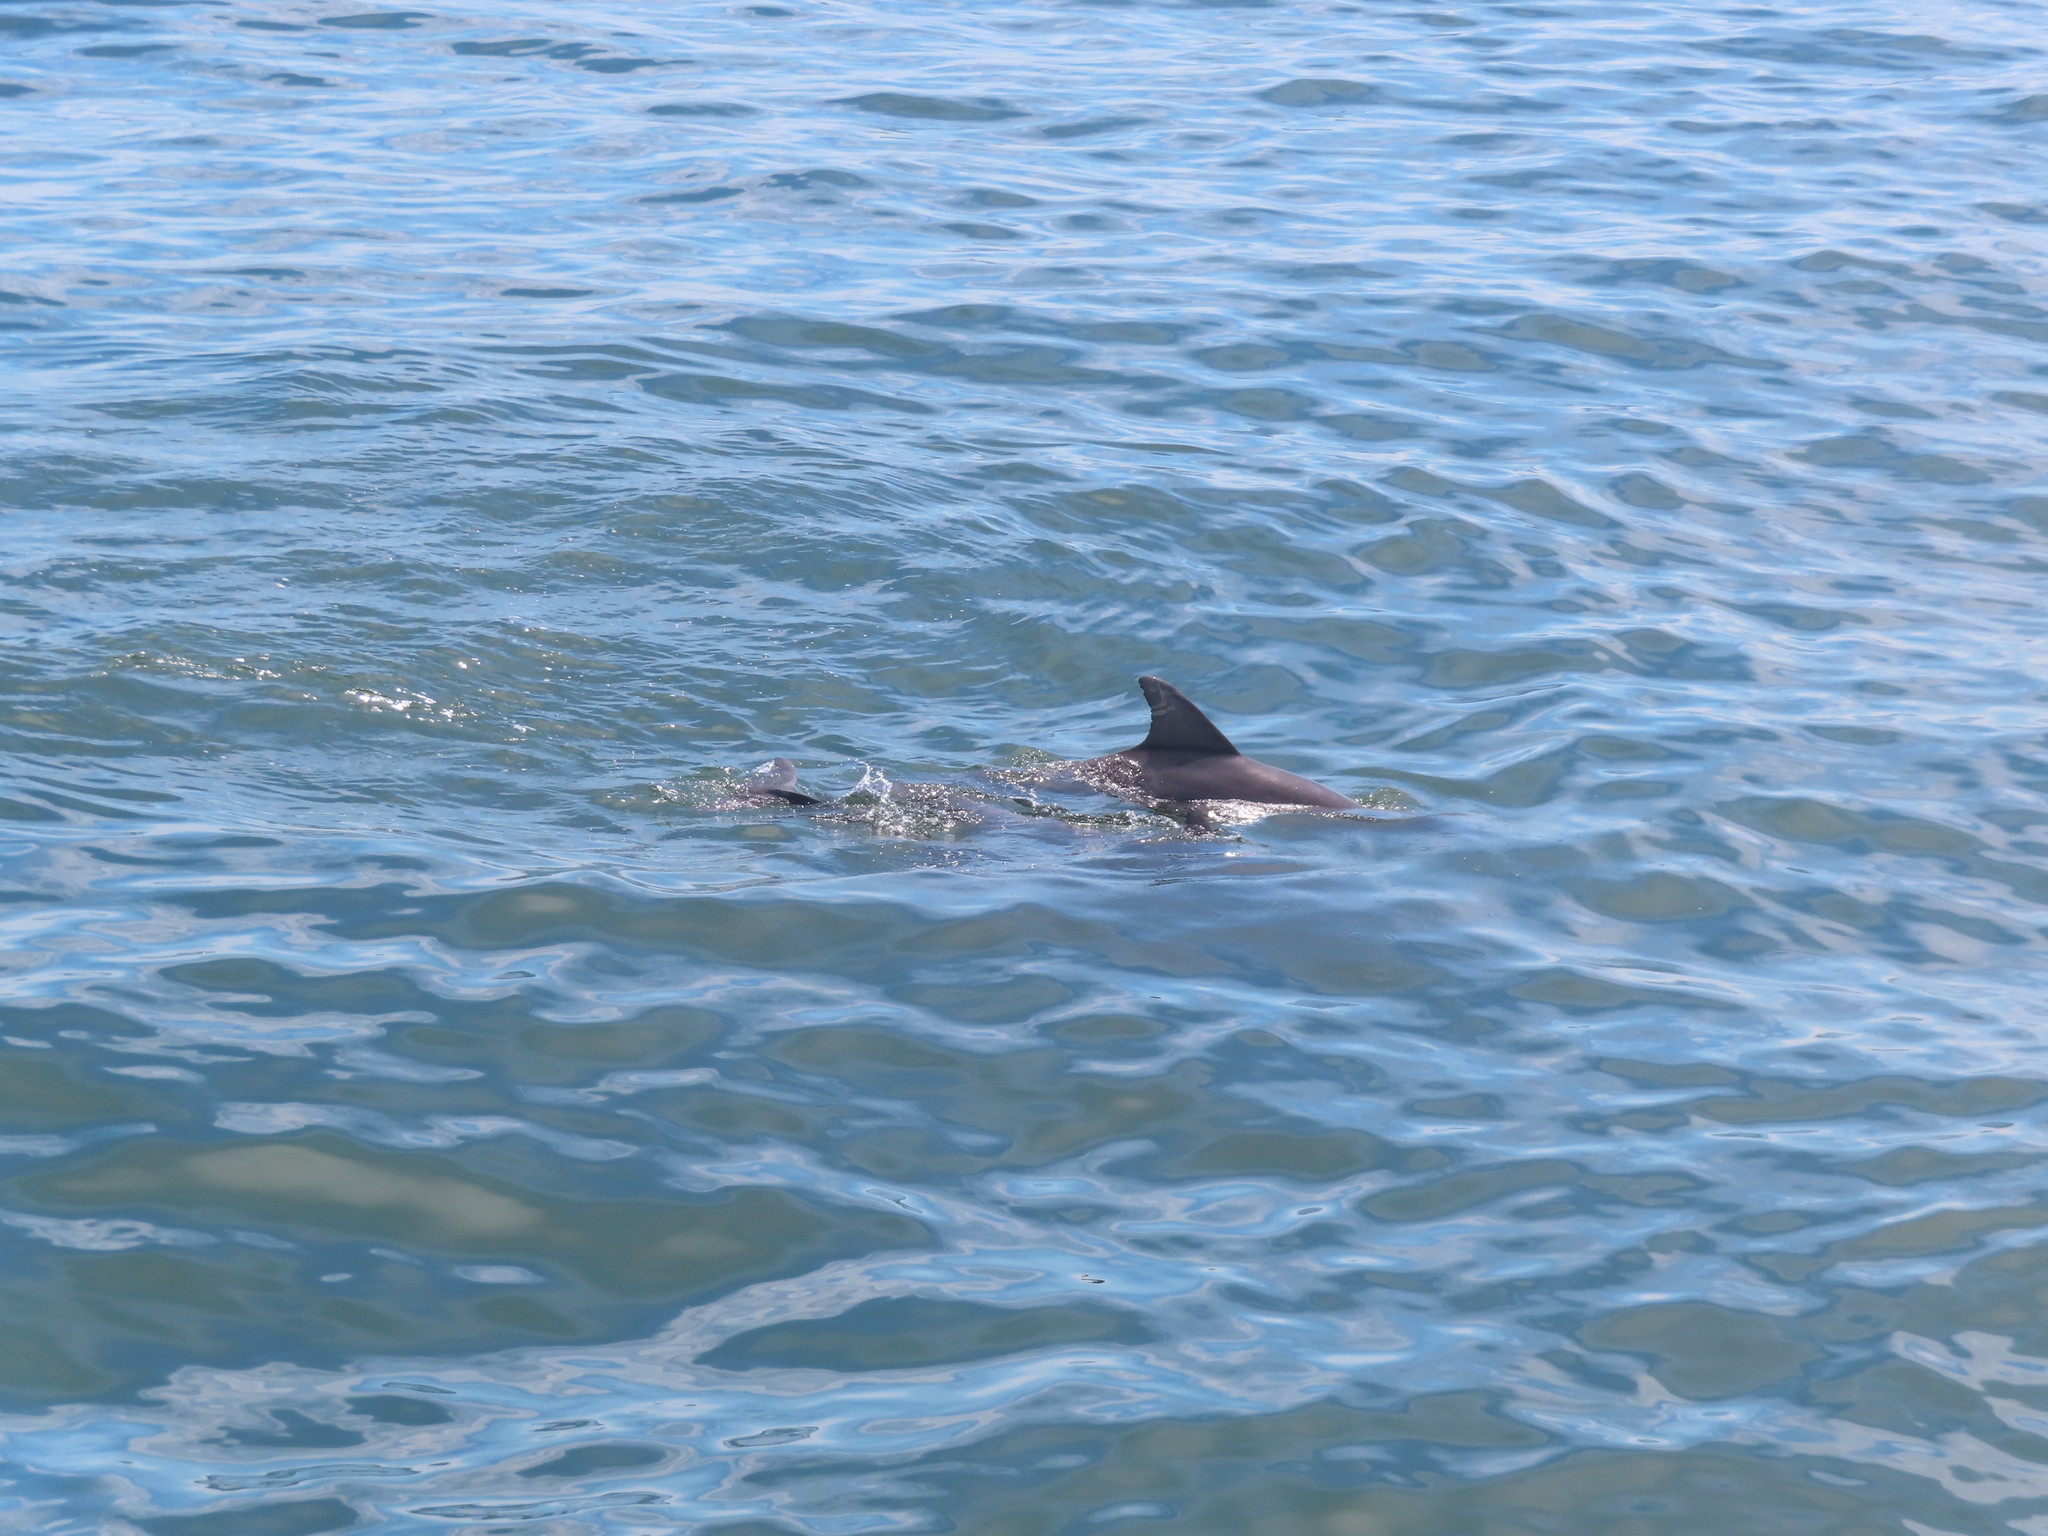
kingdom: Animalia
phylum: Chordata
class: Mammalia
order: Cetacea
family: Delphinidae
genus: Tursiops
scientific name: Tursiops truncatus
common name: Bottlenose dolphin
